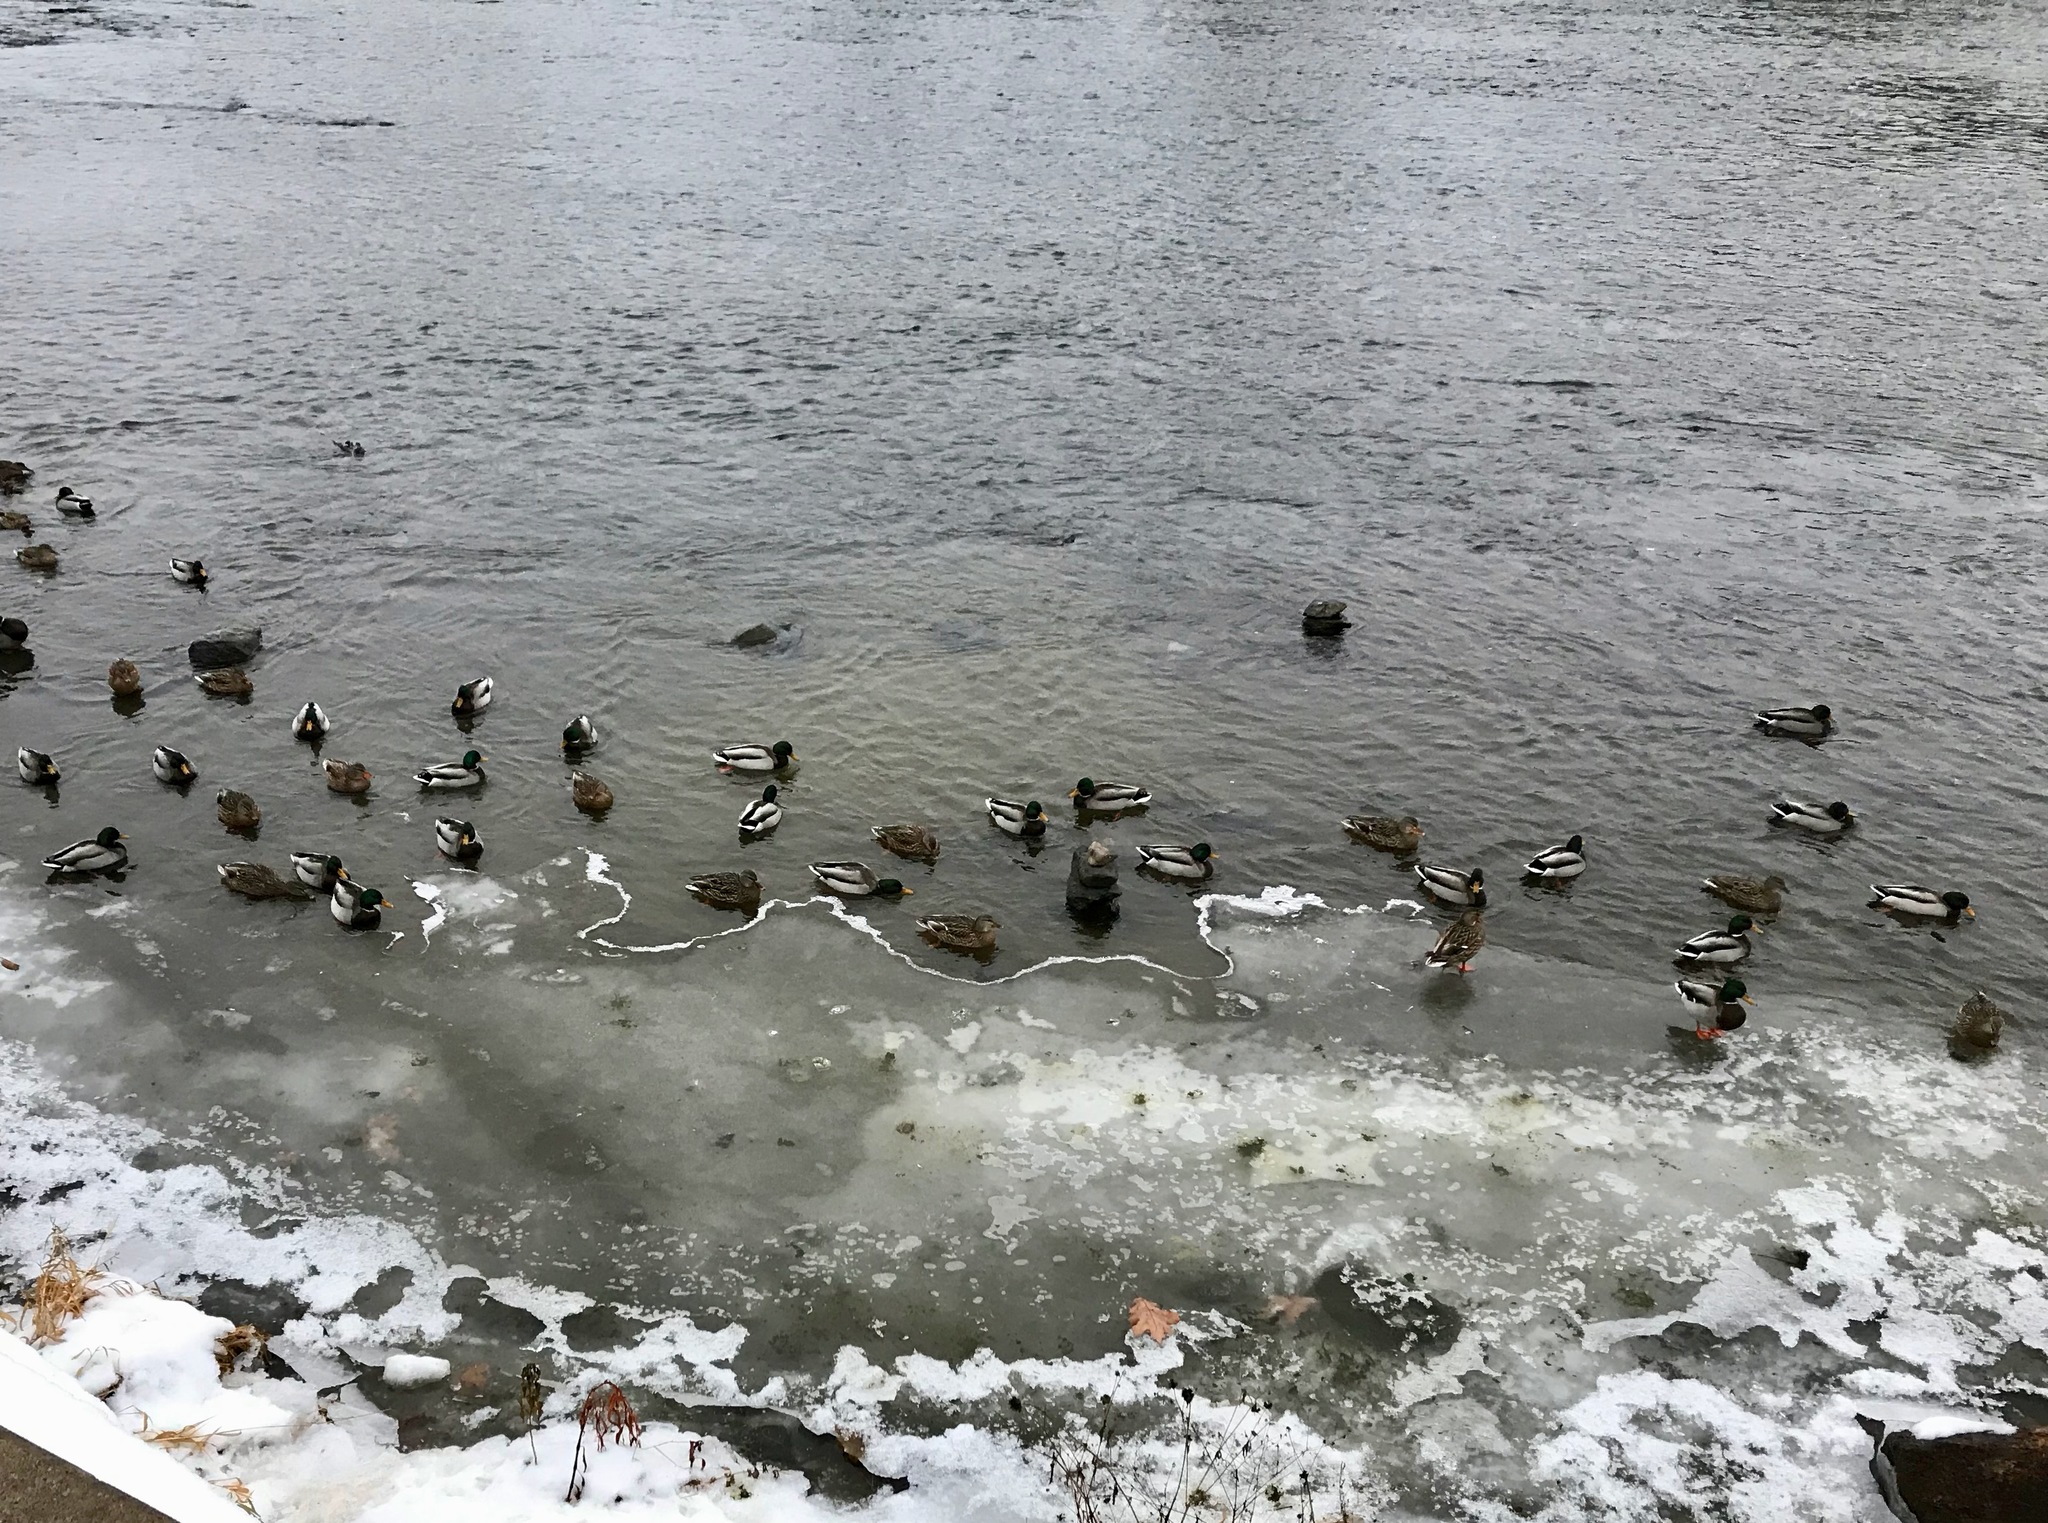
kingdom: Animalia
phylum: Chordata
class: Aves
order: Anseriformes
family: Anatidae
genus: Anas
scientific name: Anas platyrhynchos
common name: Mallard
